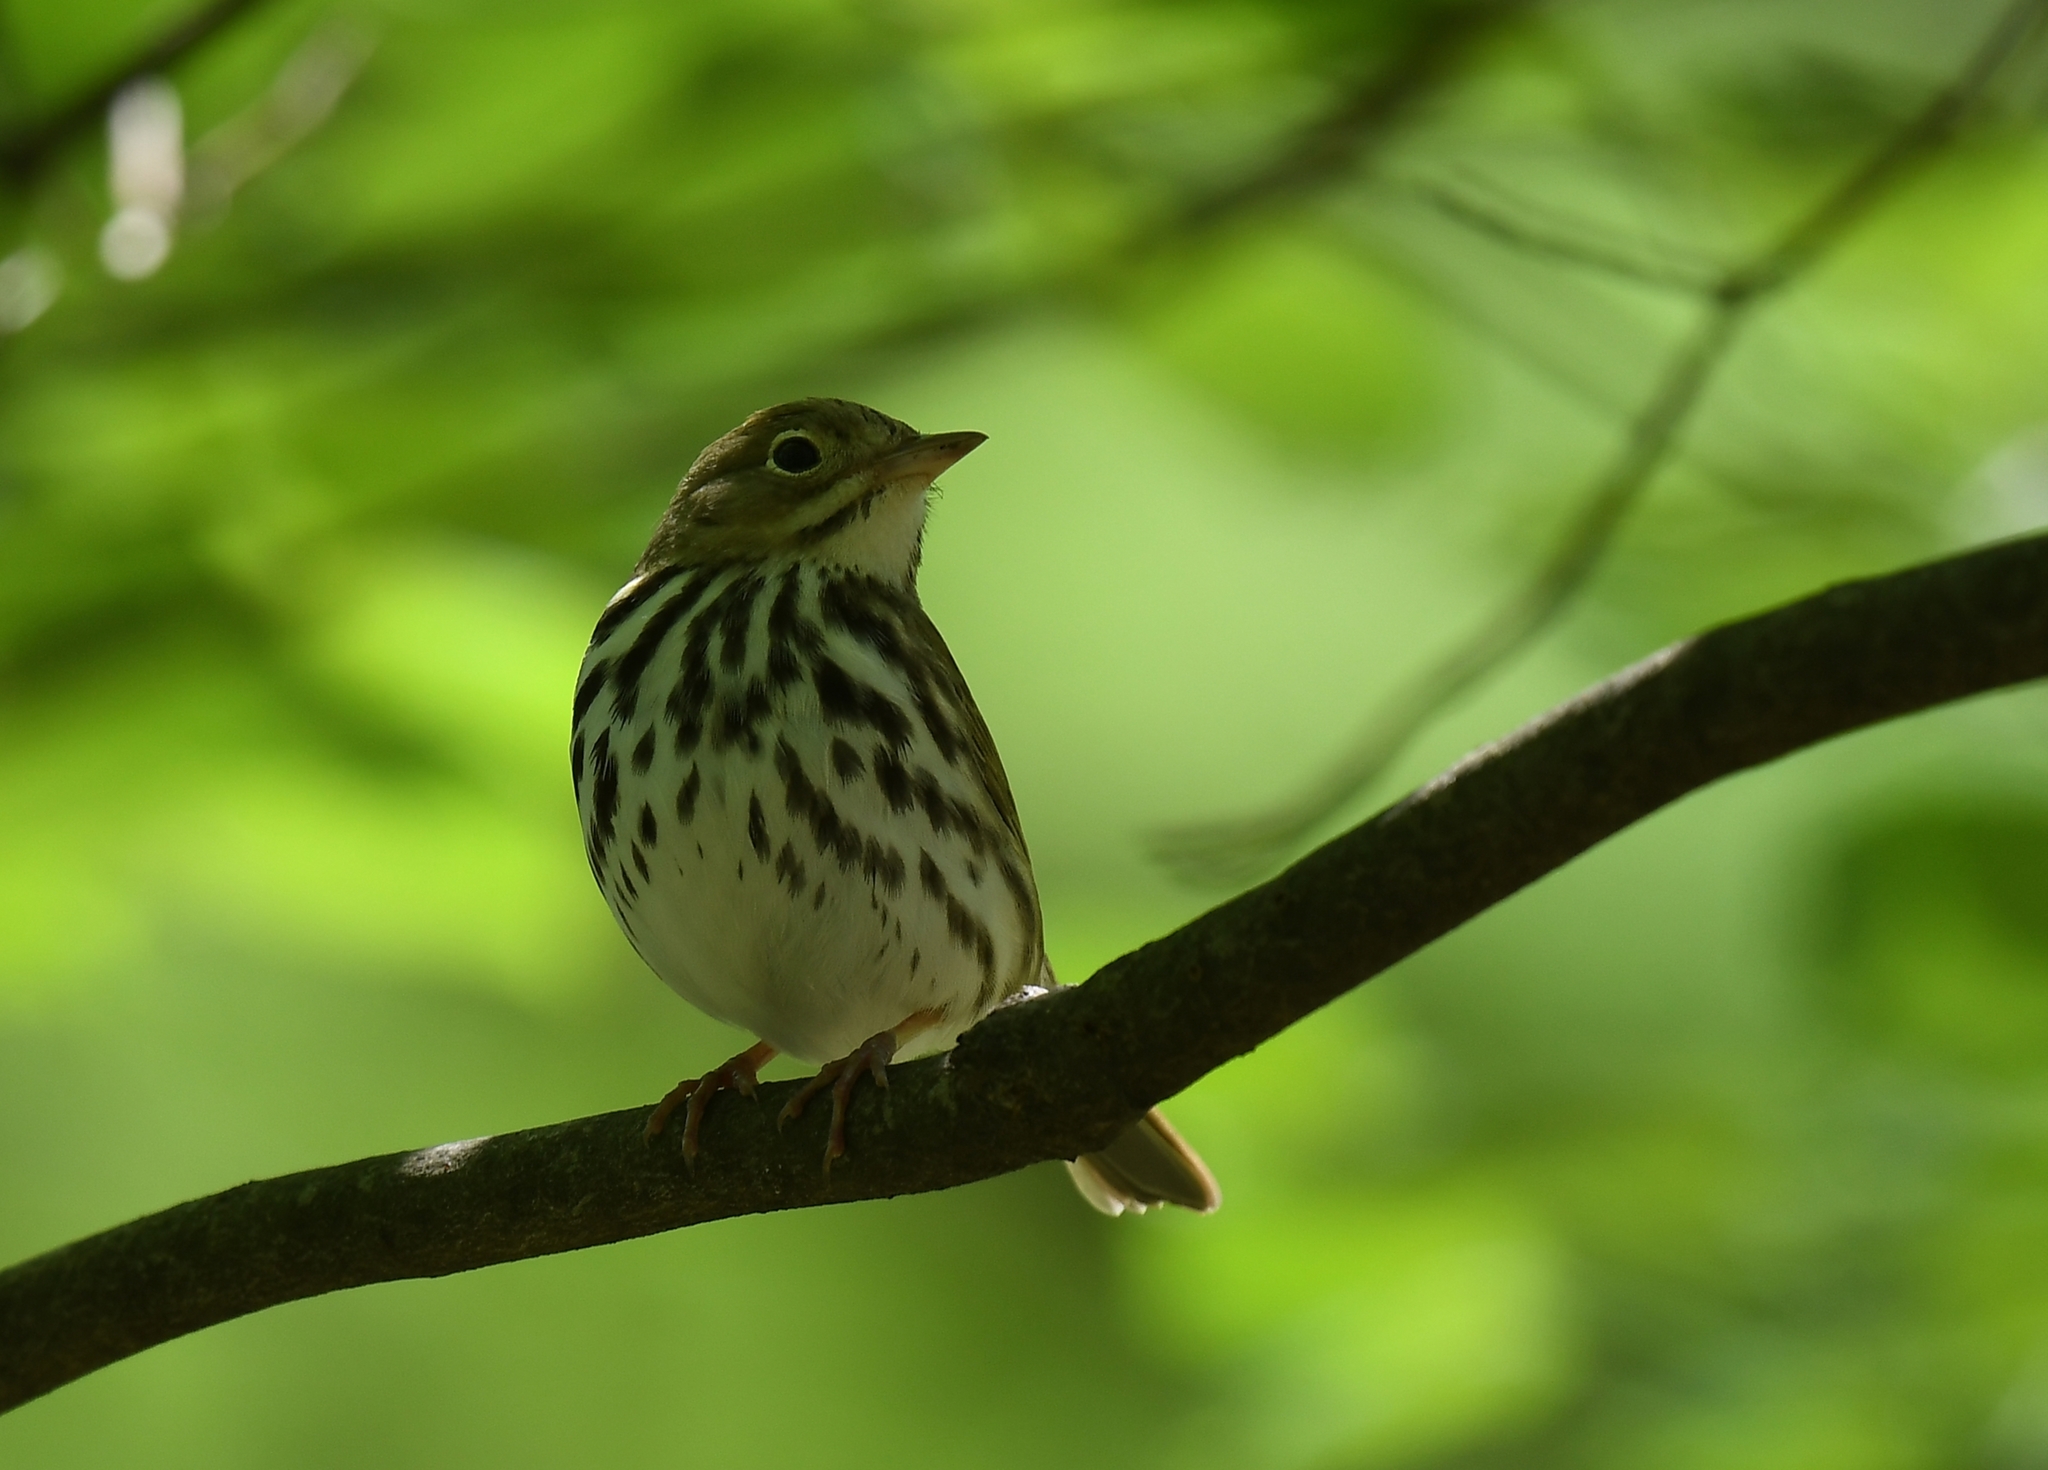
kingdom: Animalia
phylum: Chordata
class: Aves
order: Passeriformes
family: Parulidae
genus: Seiurus
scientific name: Seiurus aurocapilla
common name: Ovenbird
